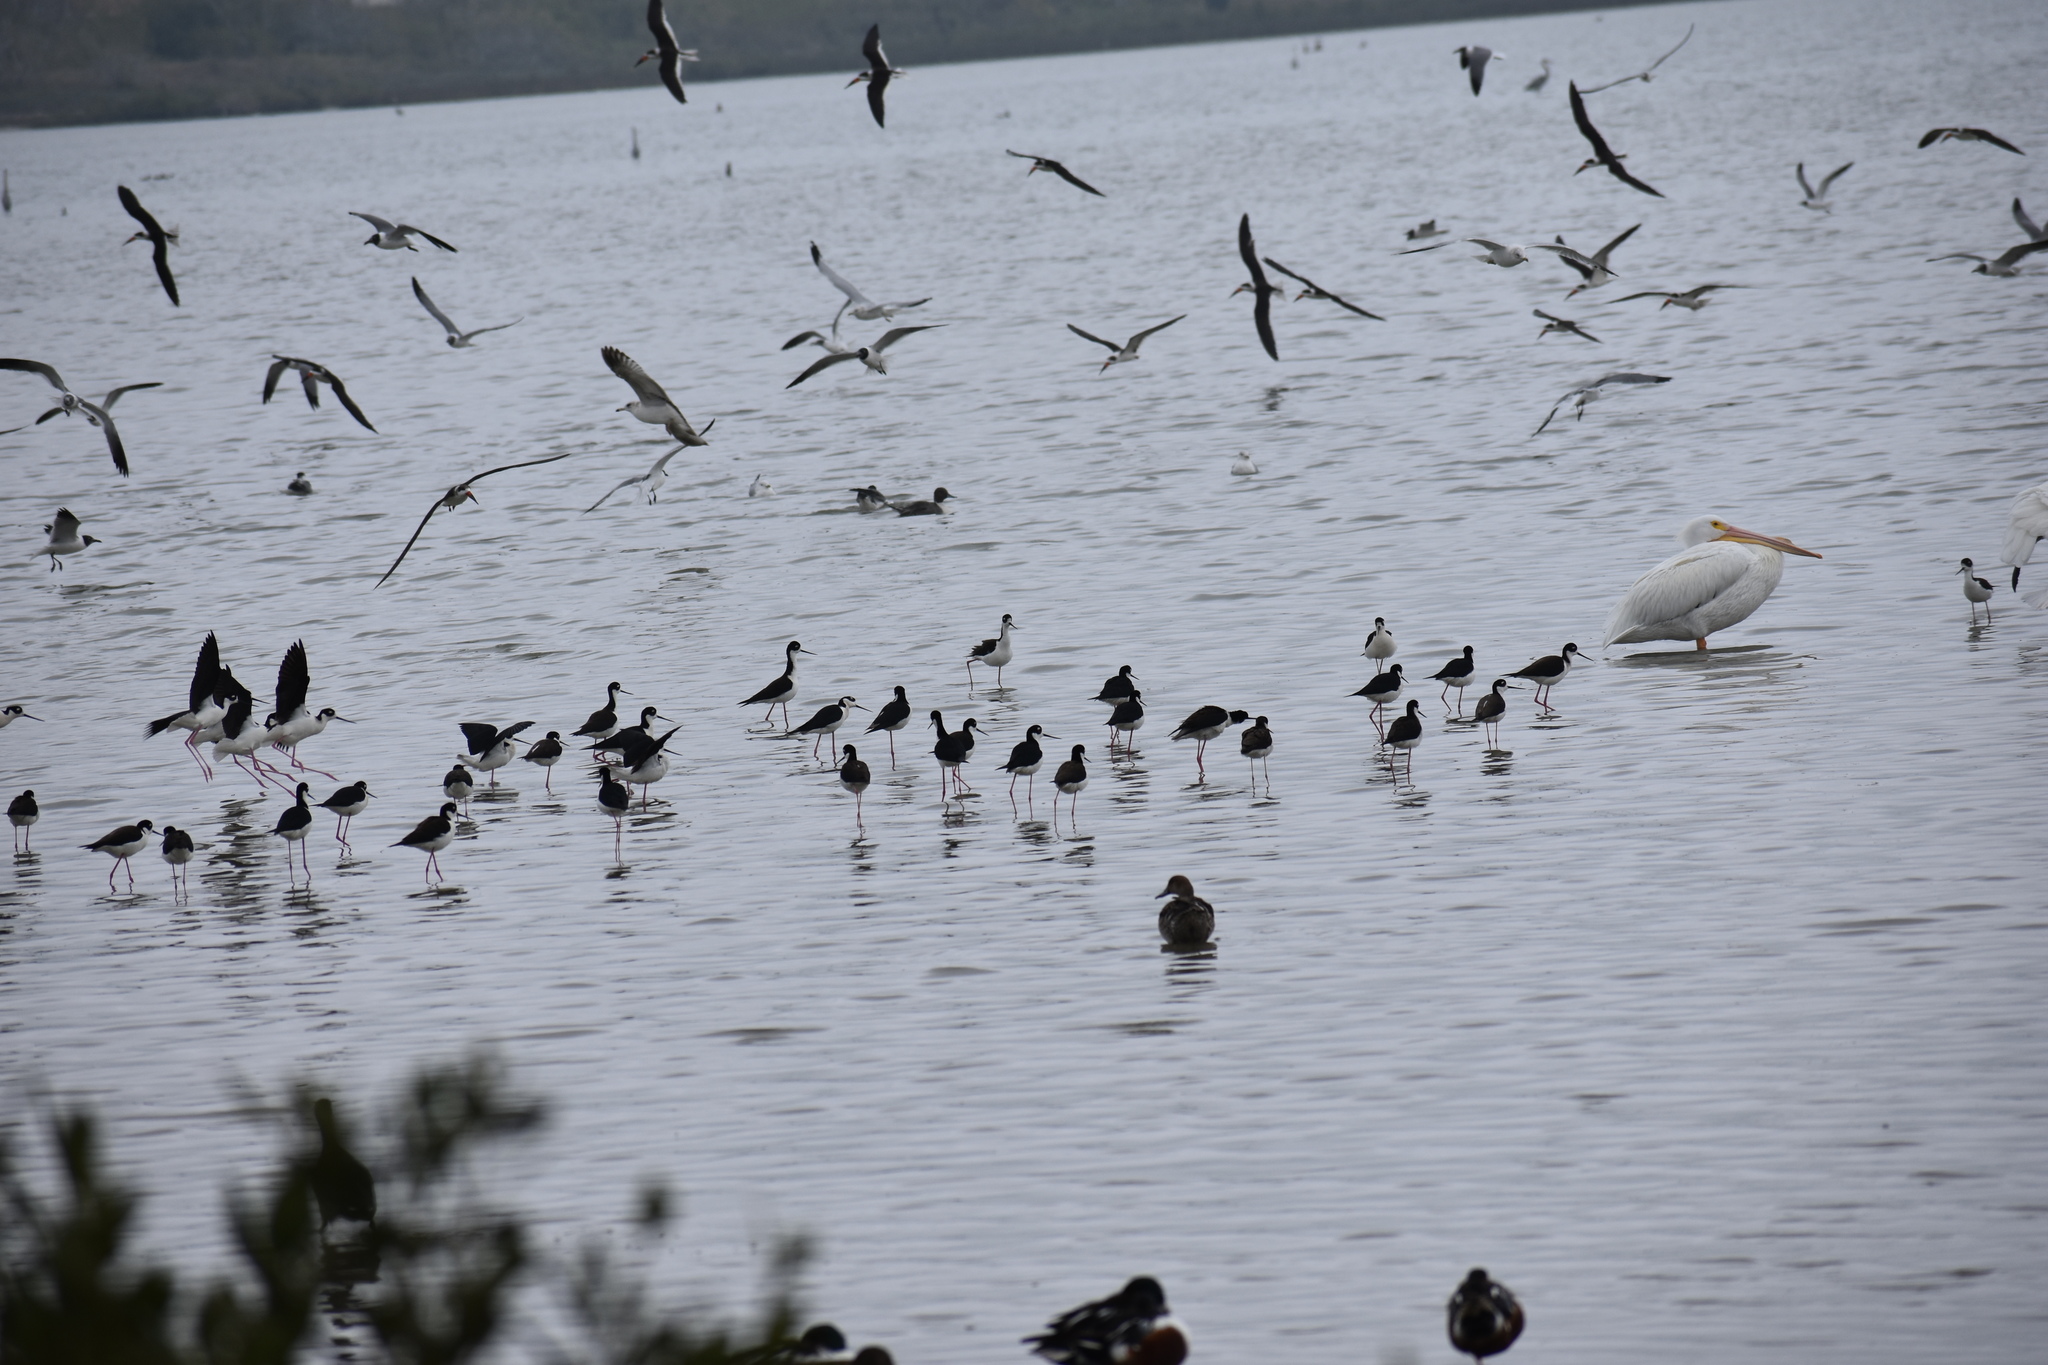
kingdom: Animalia
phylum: Chordata
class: Aves
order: Charadriiformes
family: Recurvirostridae
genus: Himantopus
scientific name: Himantopus mexicanus
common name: Black-necked stilt
